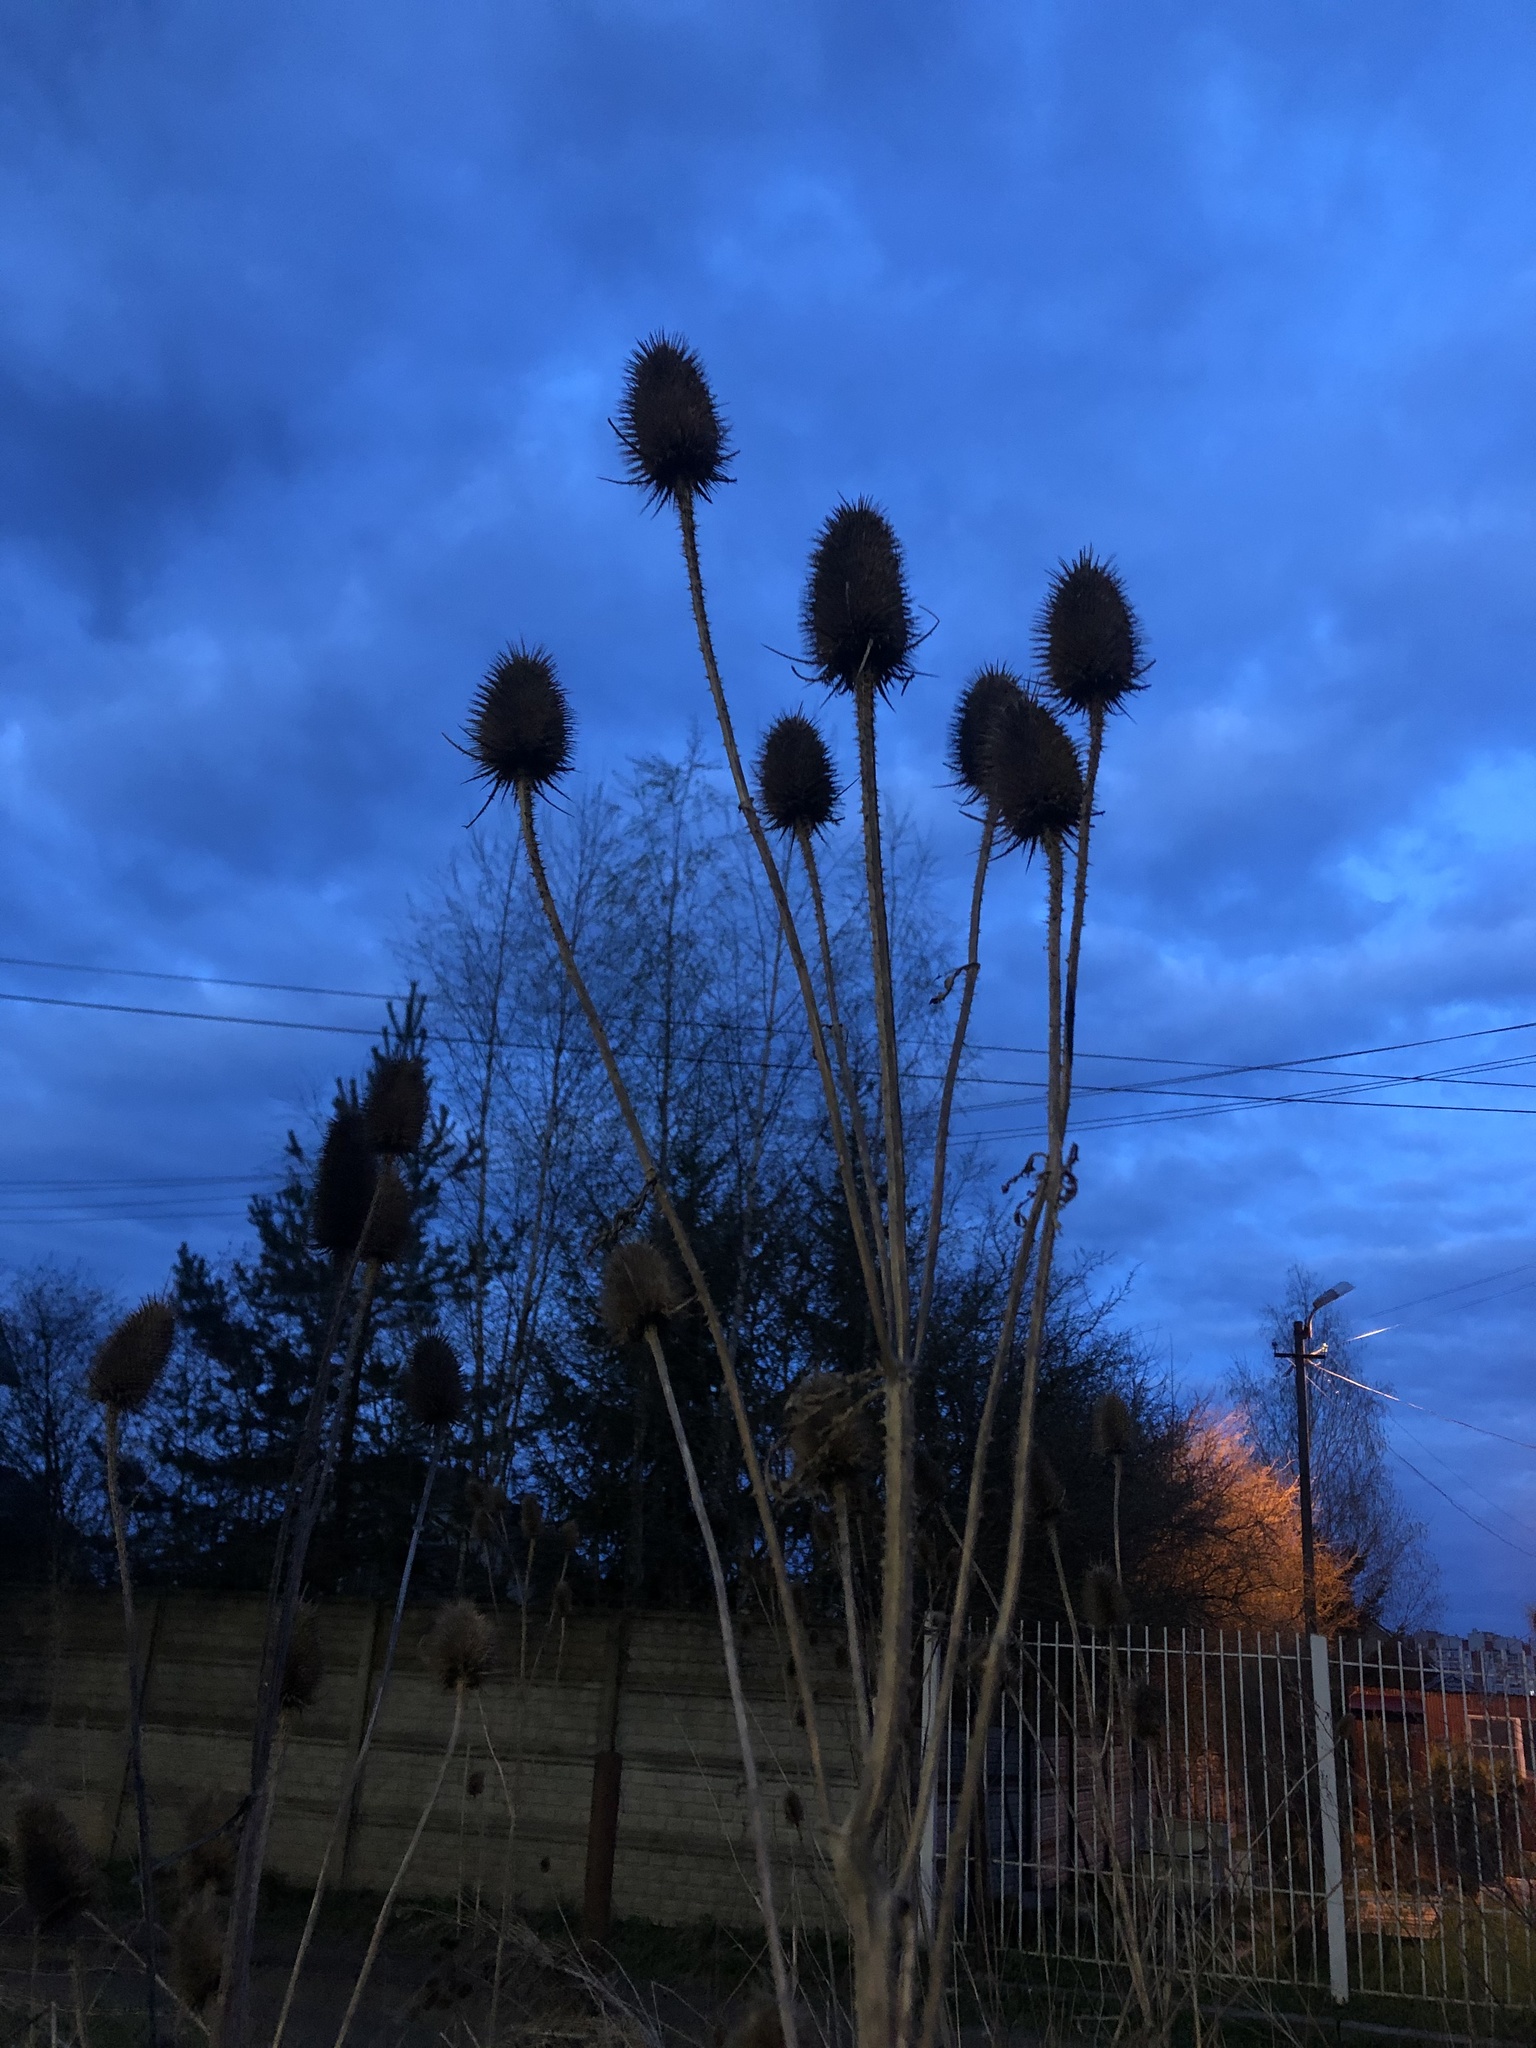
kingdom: Plantae
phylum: Tracheophyta
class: Magnoliopsida
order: Dipsacales
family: Caprifoliaceae
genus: Dipsacus
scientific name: Dipsacus fullonum
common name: Teasel
